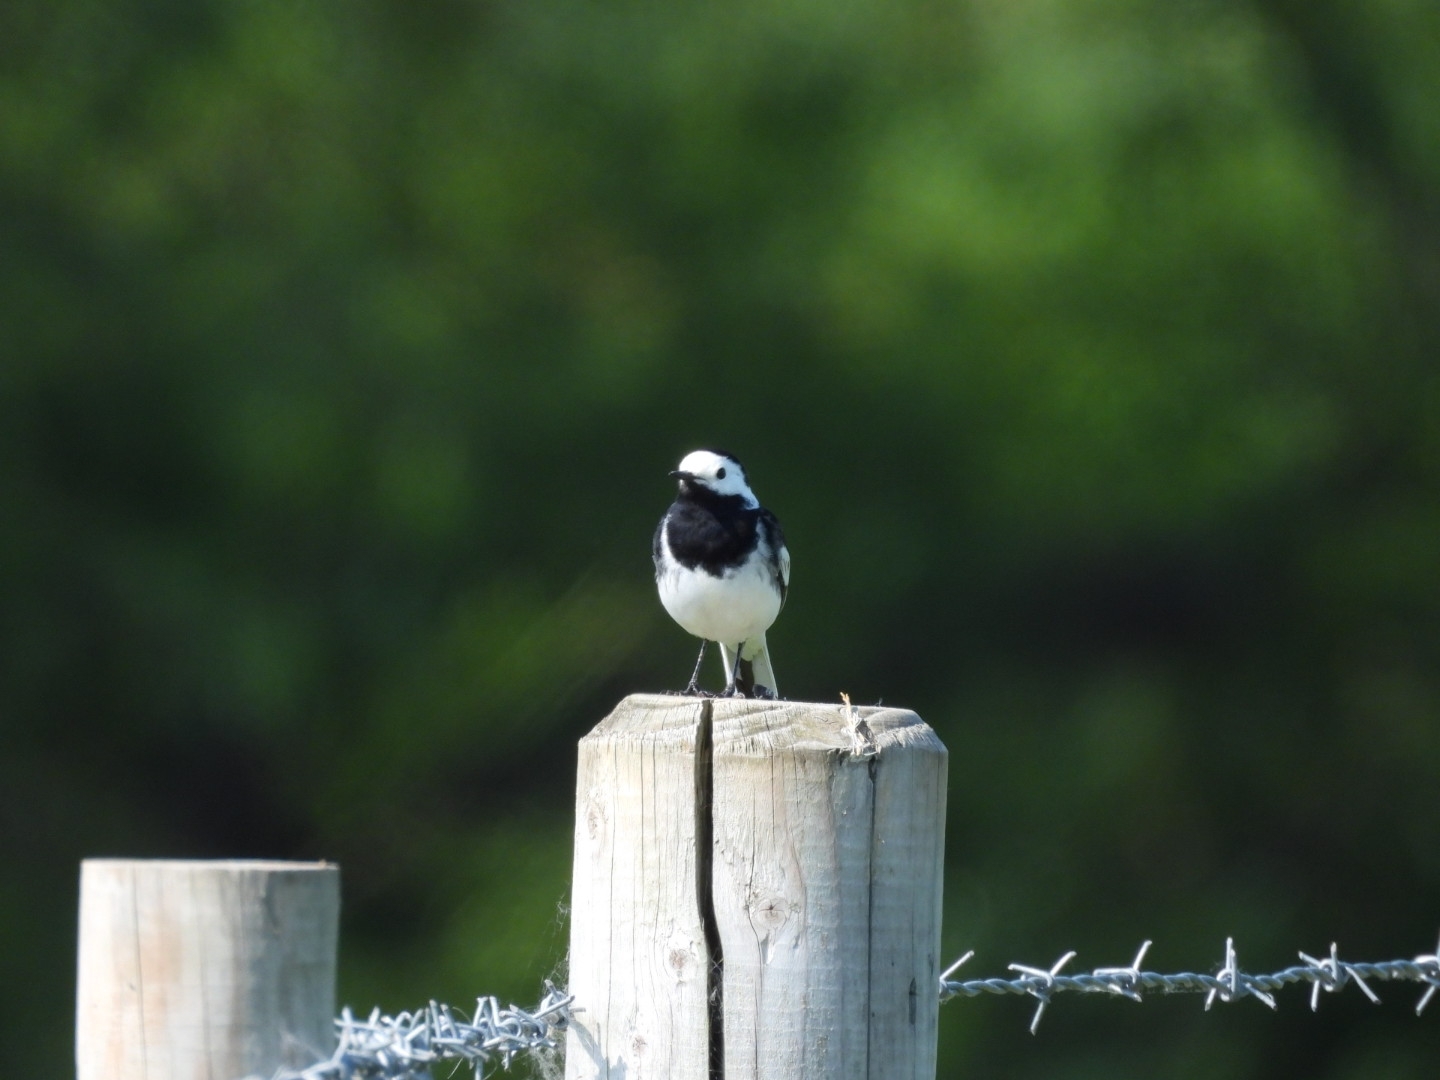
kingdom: Animalia
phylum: Chordata
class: Aves
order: Passeriformes
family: Motacillidae
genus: Motacilla
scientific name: Motacilla alba
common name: White wagtail
